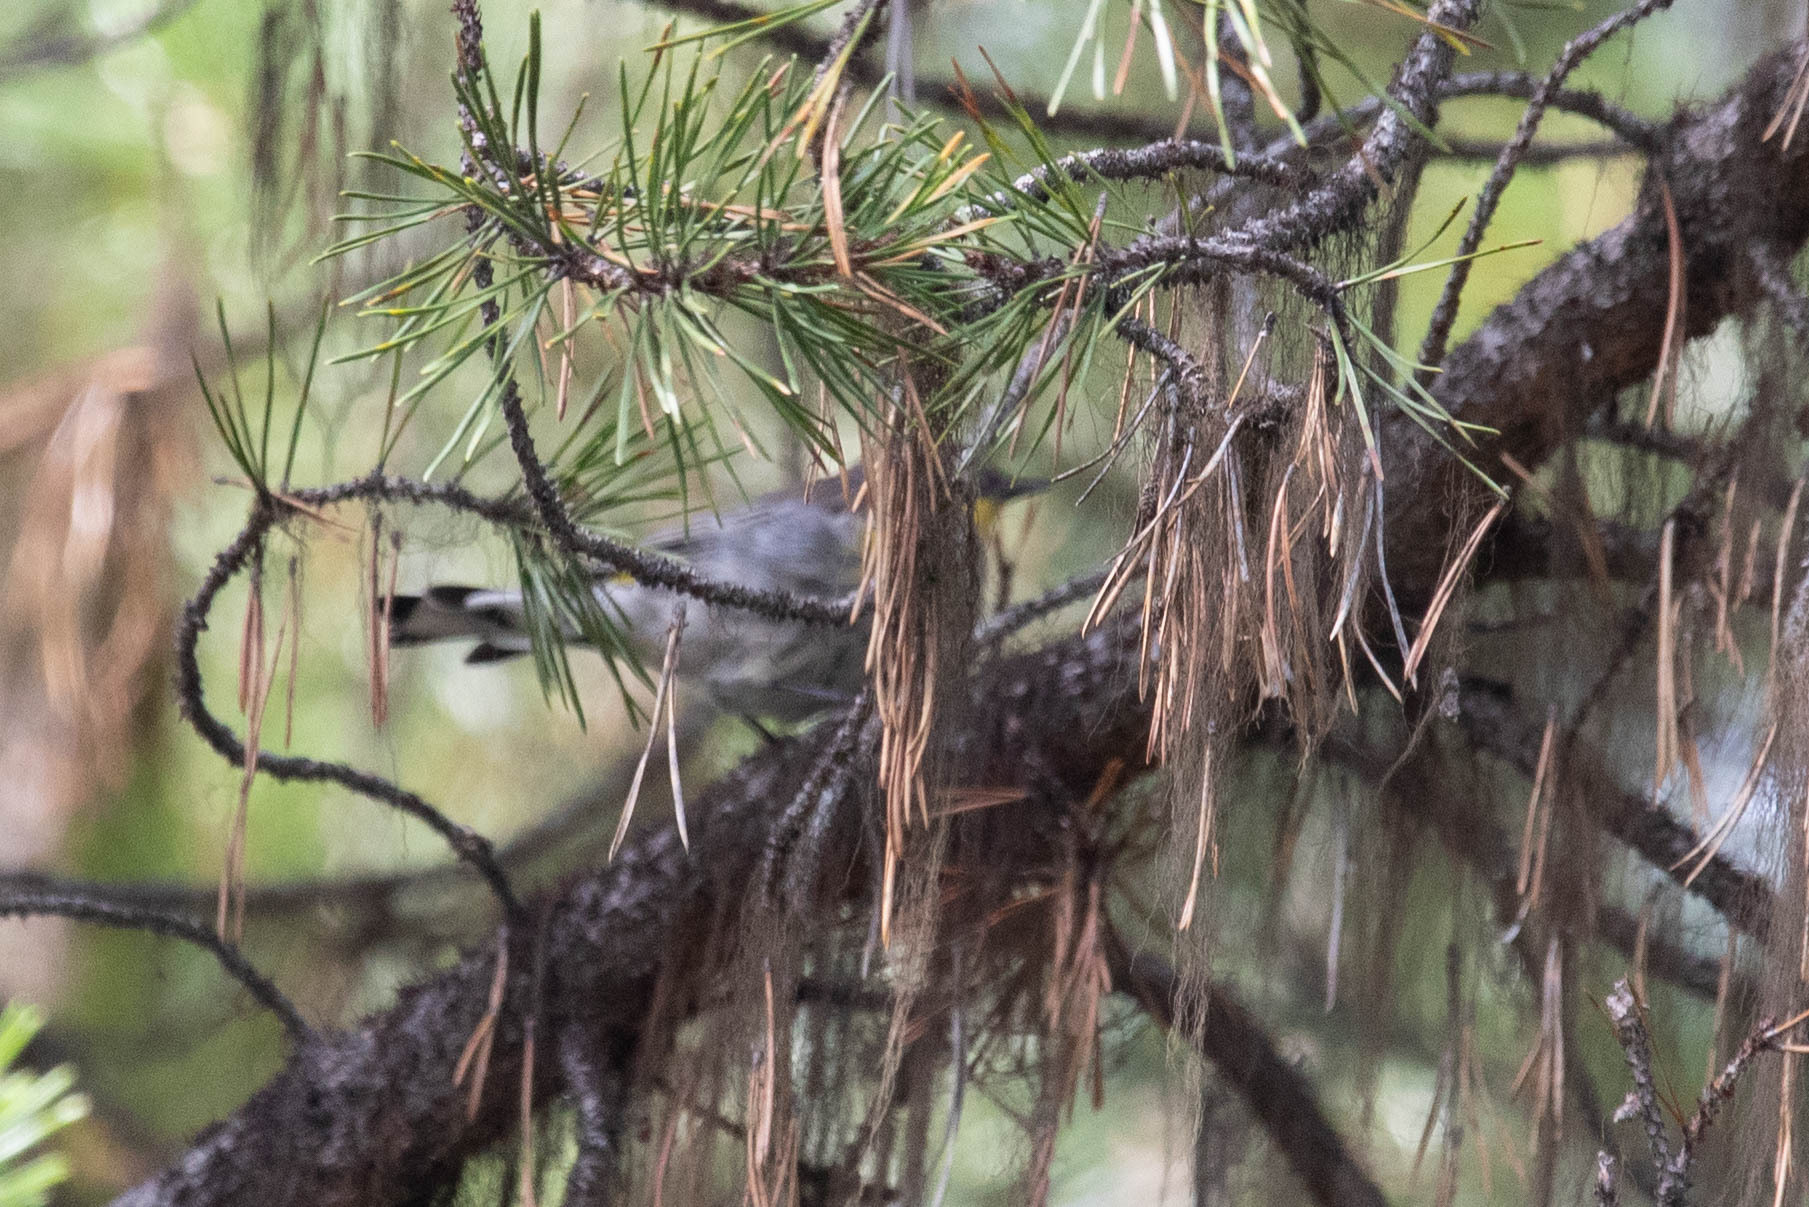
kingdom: Animalia
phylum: Chordata
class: Aves
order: Passeriformes
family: Parulidae
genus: Setophaga
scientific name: Setophaga coronata
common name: Myrtle warbler
